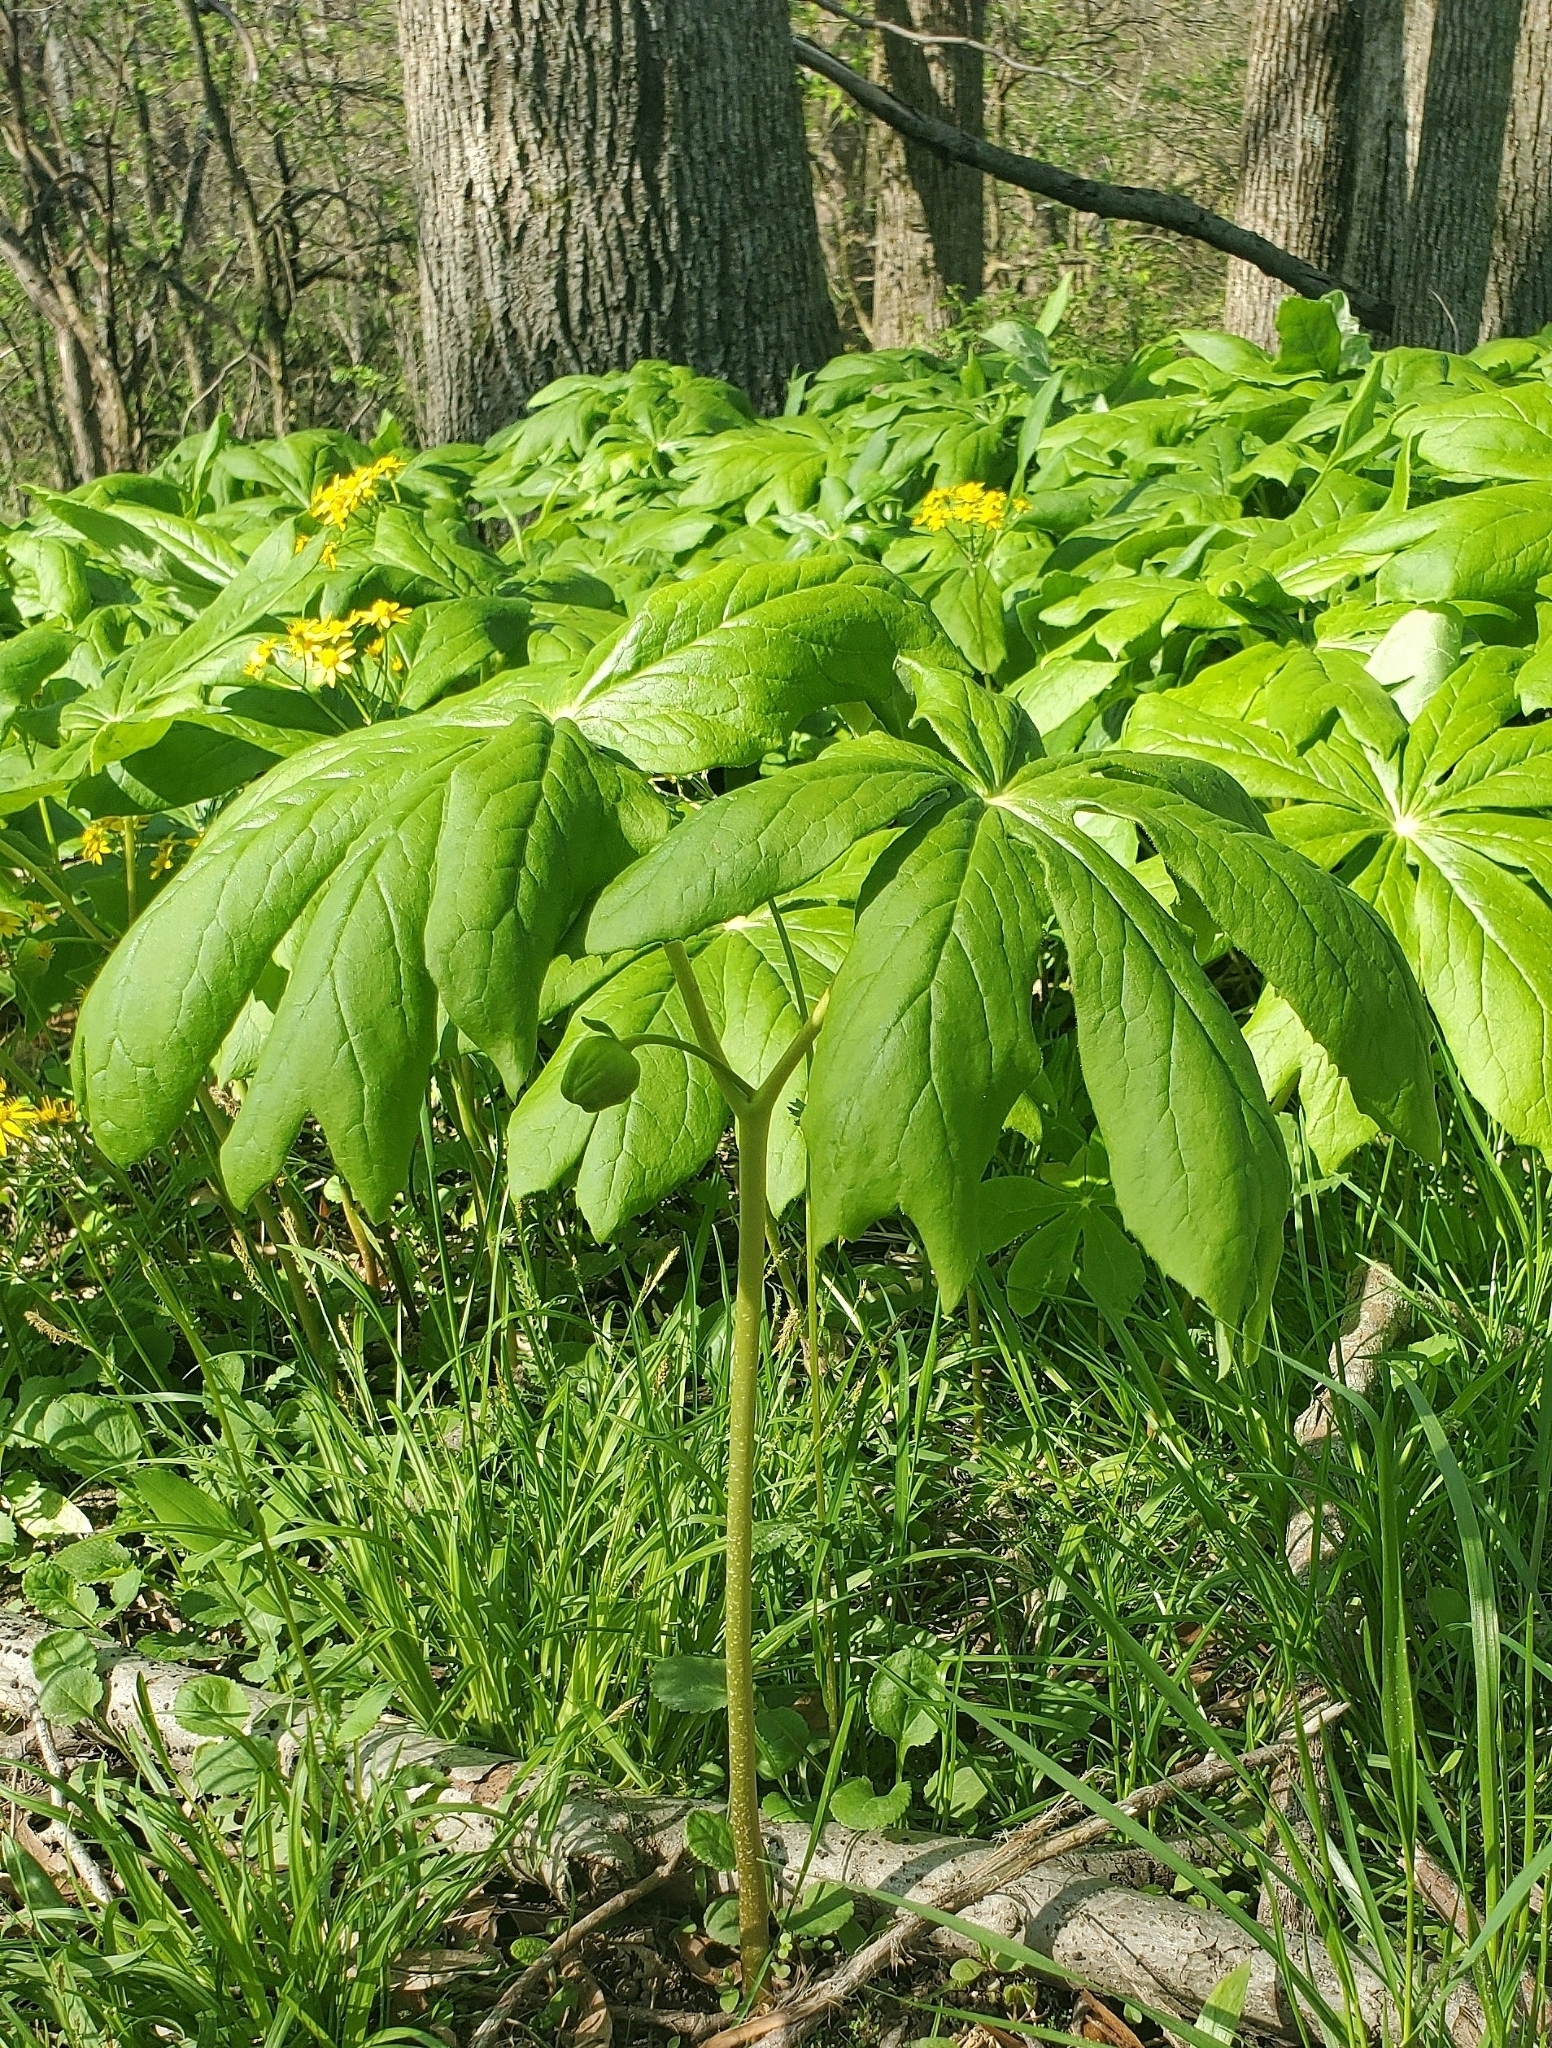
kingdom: Plantae
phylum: Tracheophyta
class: Magnoliopsida
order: Ranunculales
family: Berberidaceae
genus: Podophyllum
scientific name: Podophyllum peltatum
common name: Wild mandrake
